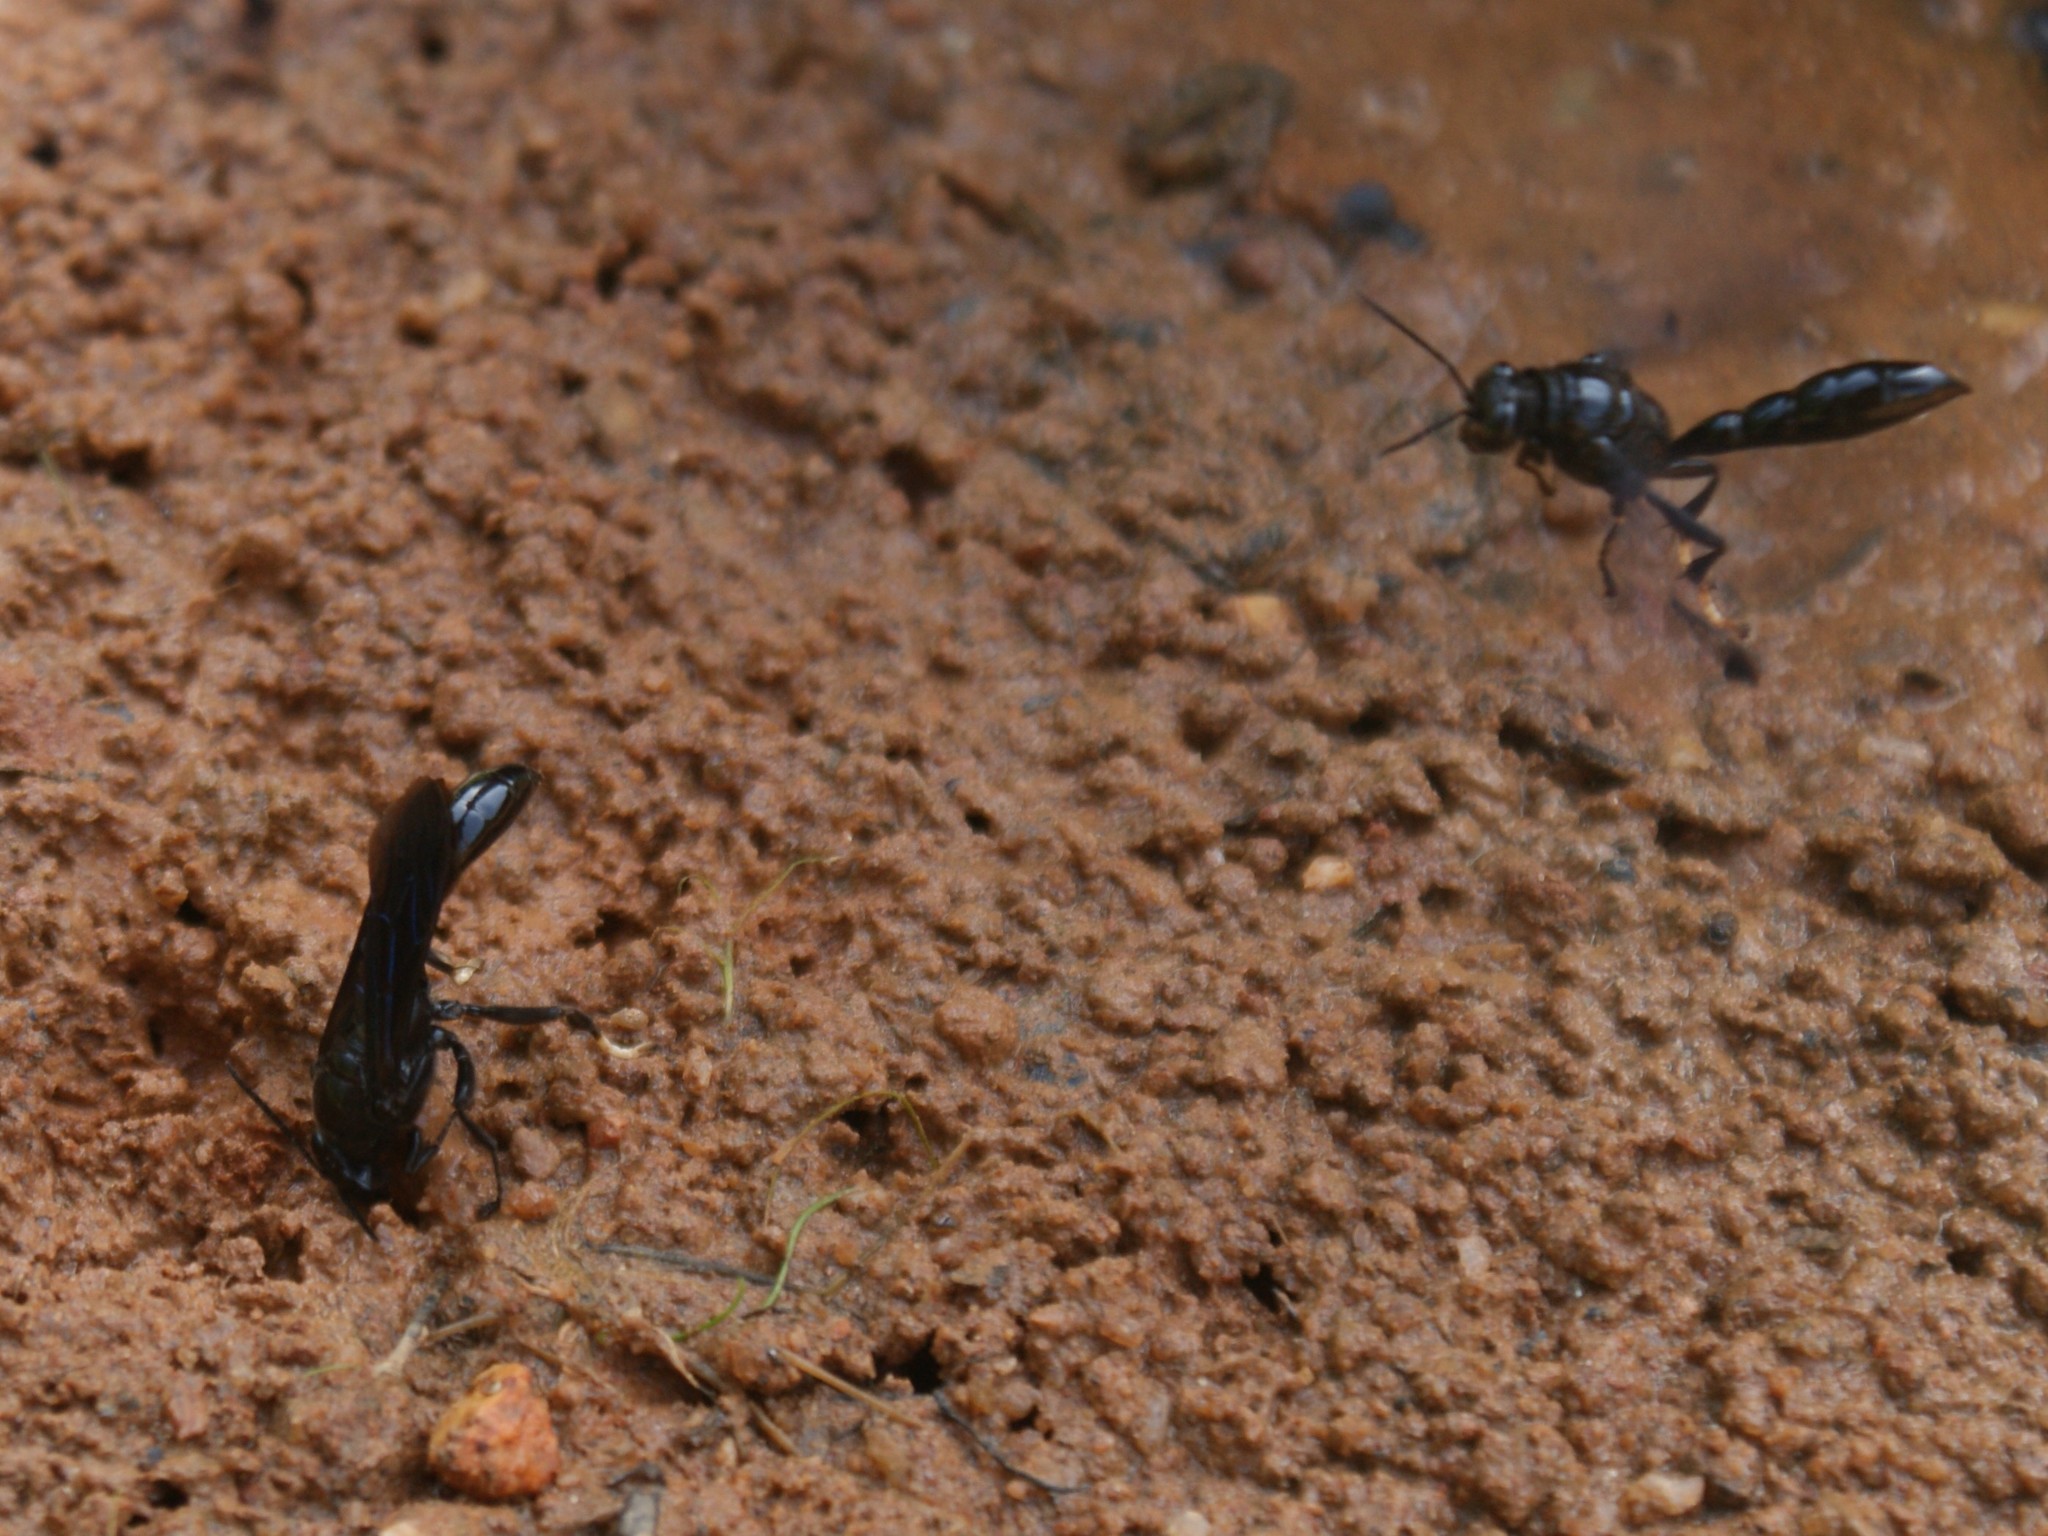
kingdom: Animalia
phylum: Arthropoda
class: Insecta
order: Hymenoptera
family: Crabronidae
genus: Trypoxylon
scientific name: Trypoxylon politum
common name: Organ-pipe mud-dauber wasp
